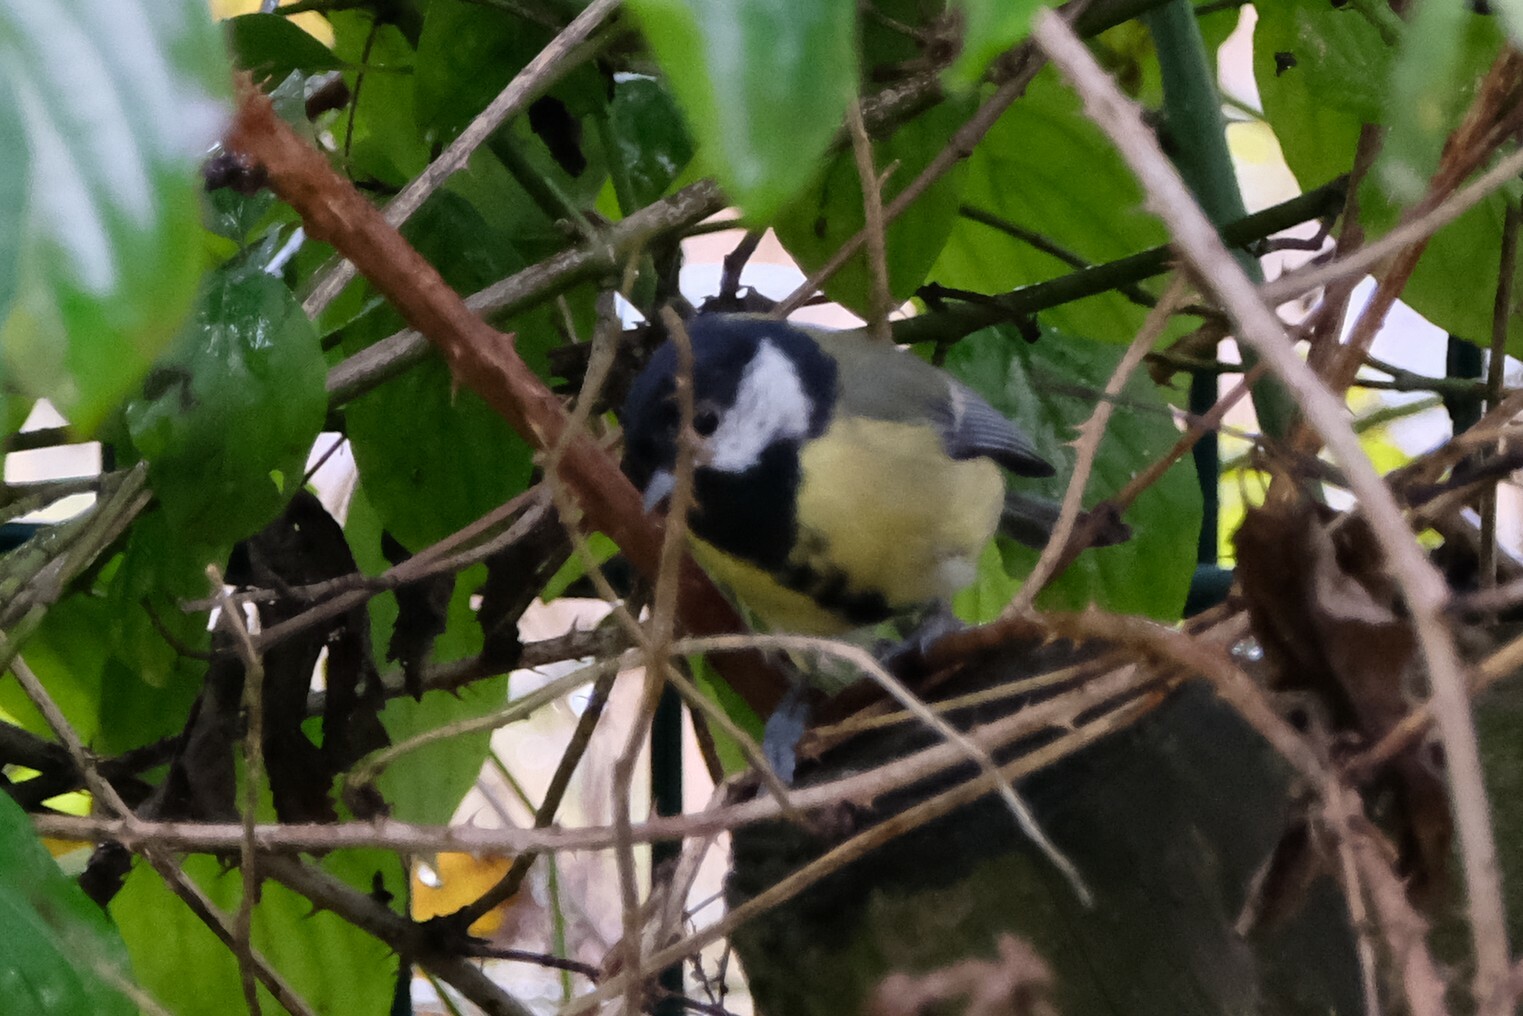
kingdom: Animalia
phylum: Chordata
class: Aves
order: Passeriformes
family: Paridae
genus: Parus
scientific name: Parus major
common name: Great tit
